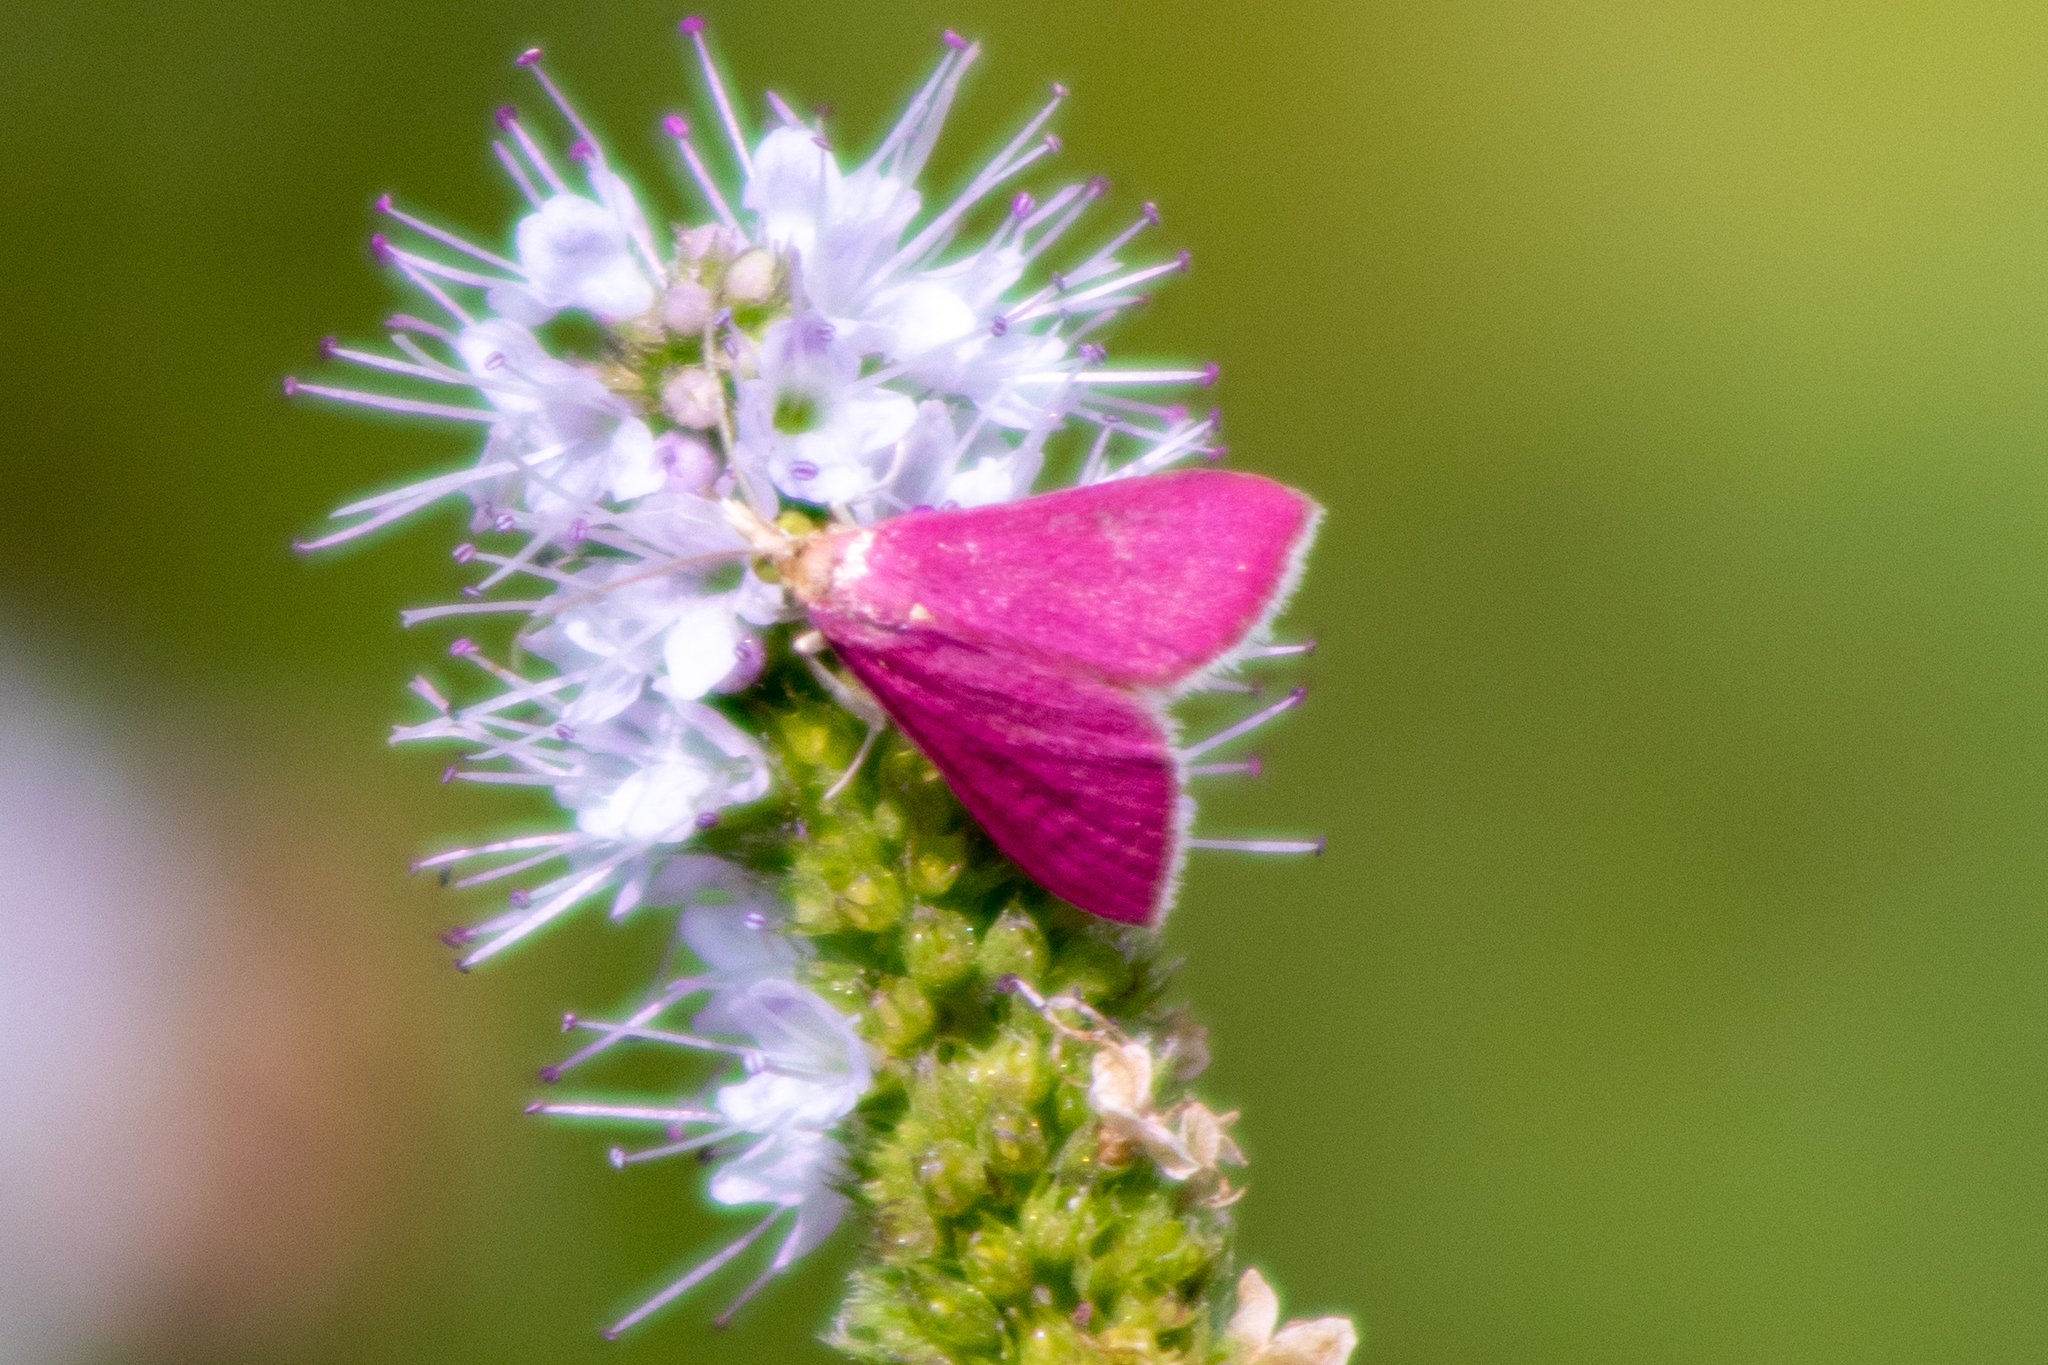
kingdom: Animalia
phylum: Arthropoda
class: Insecta
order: Lepidoptera
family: Crambidae
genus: Pyrausta
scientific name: Pyrausta inornatalis
